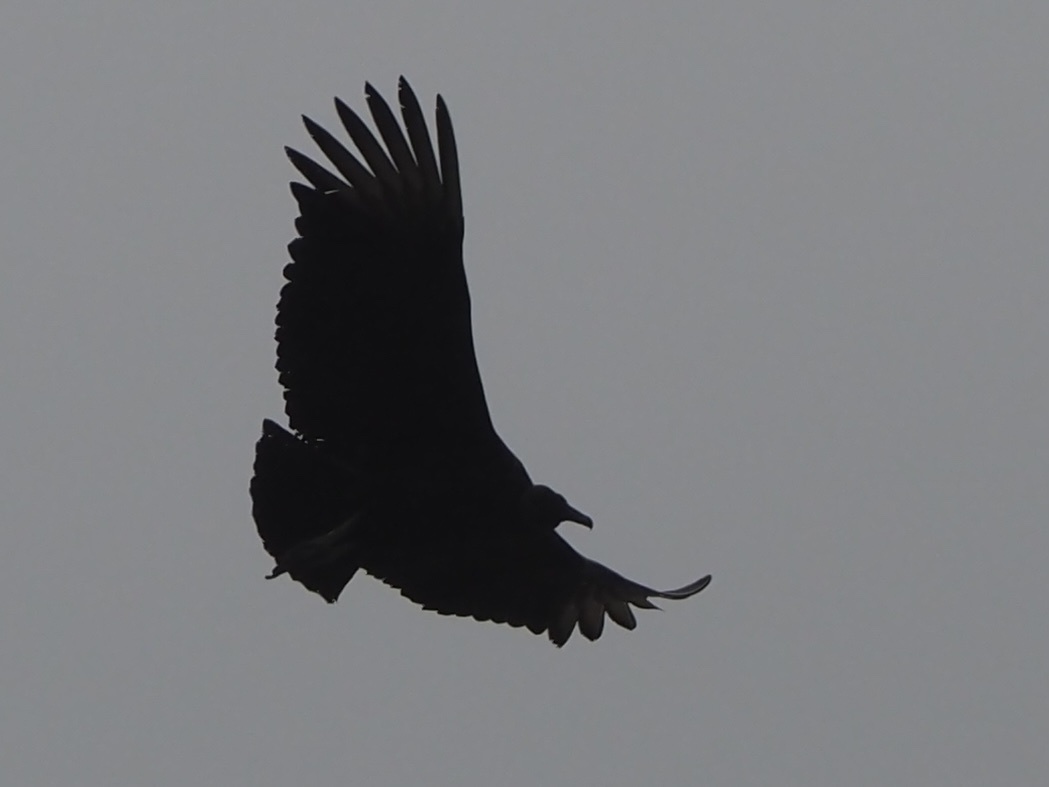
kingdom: Animalia
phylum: Chordata
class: Aves
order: Accipitriformes
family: Cathartidae
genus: Coragyps
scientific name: Coragyps atratus
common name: Black vulture
